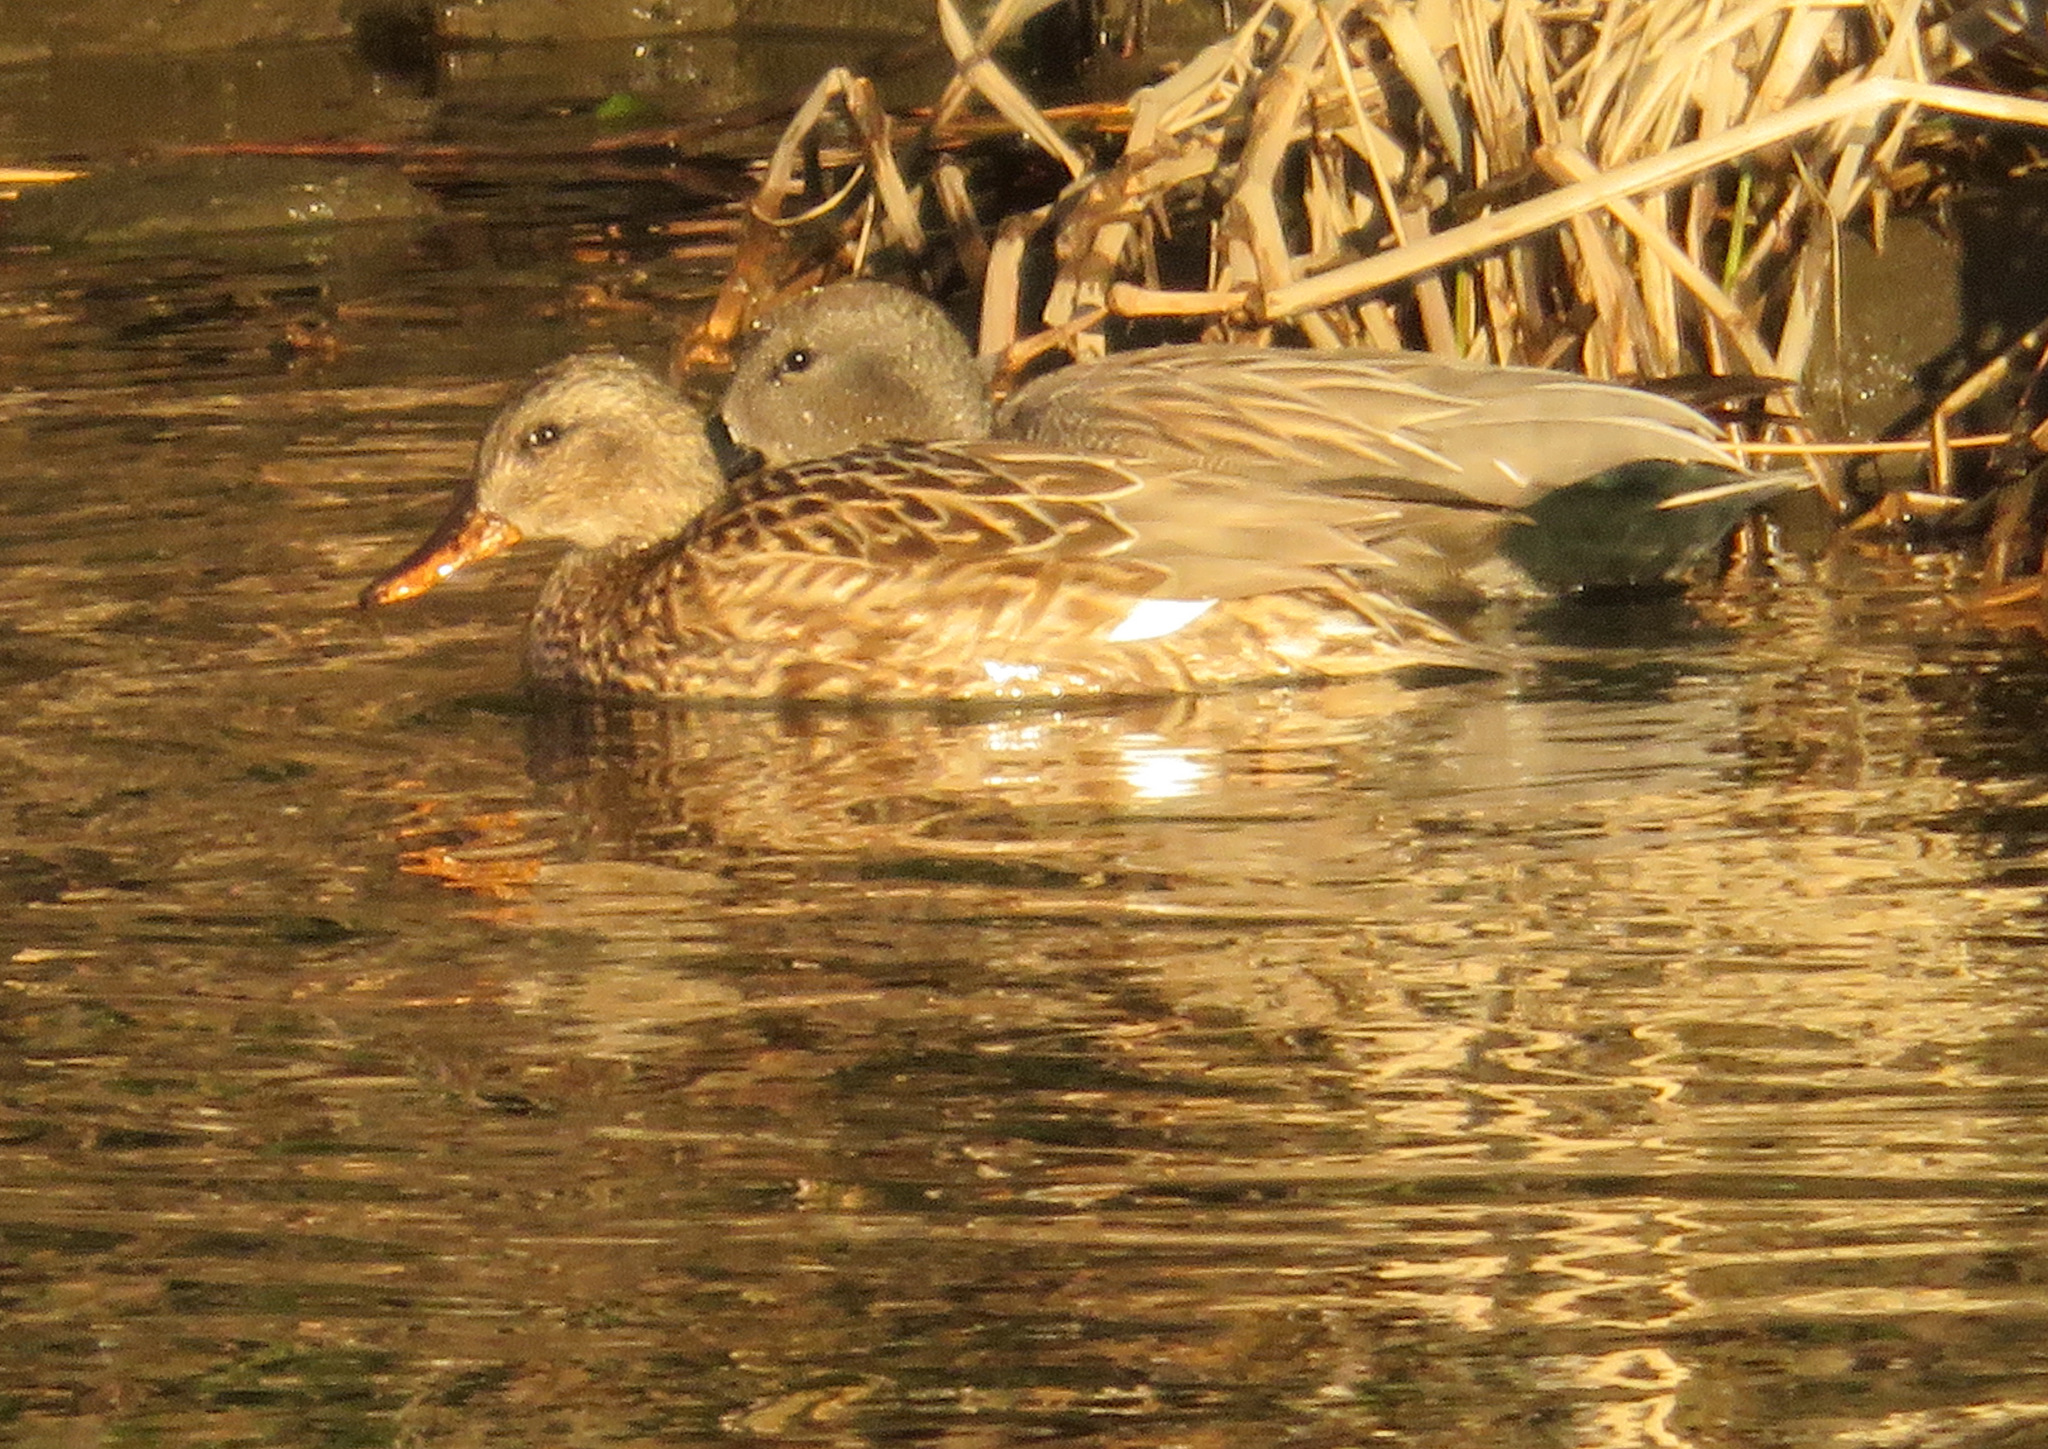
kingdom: Animalia
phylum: Chordata
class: Aves
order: Anseriformes
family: Anatidae
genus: Mareca
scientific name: Mareca strepera
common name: Gadwall
